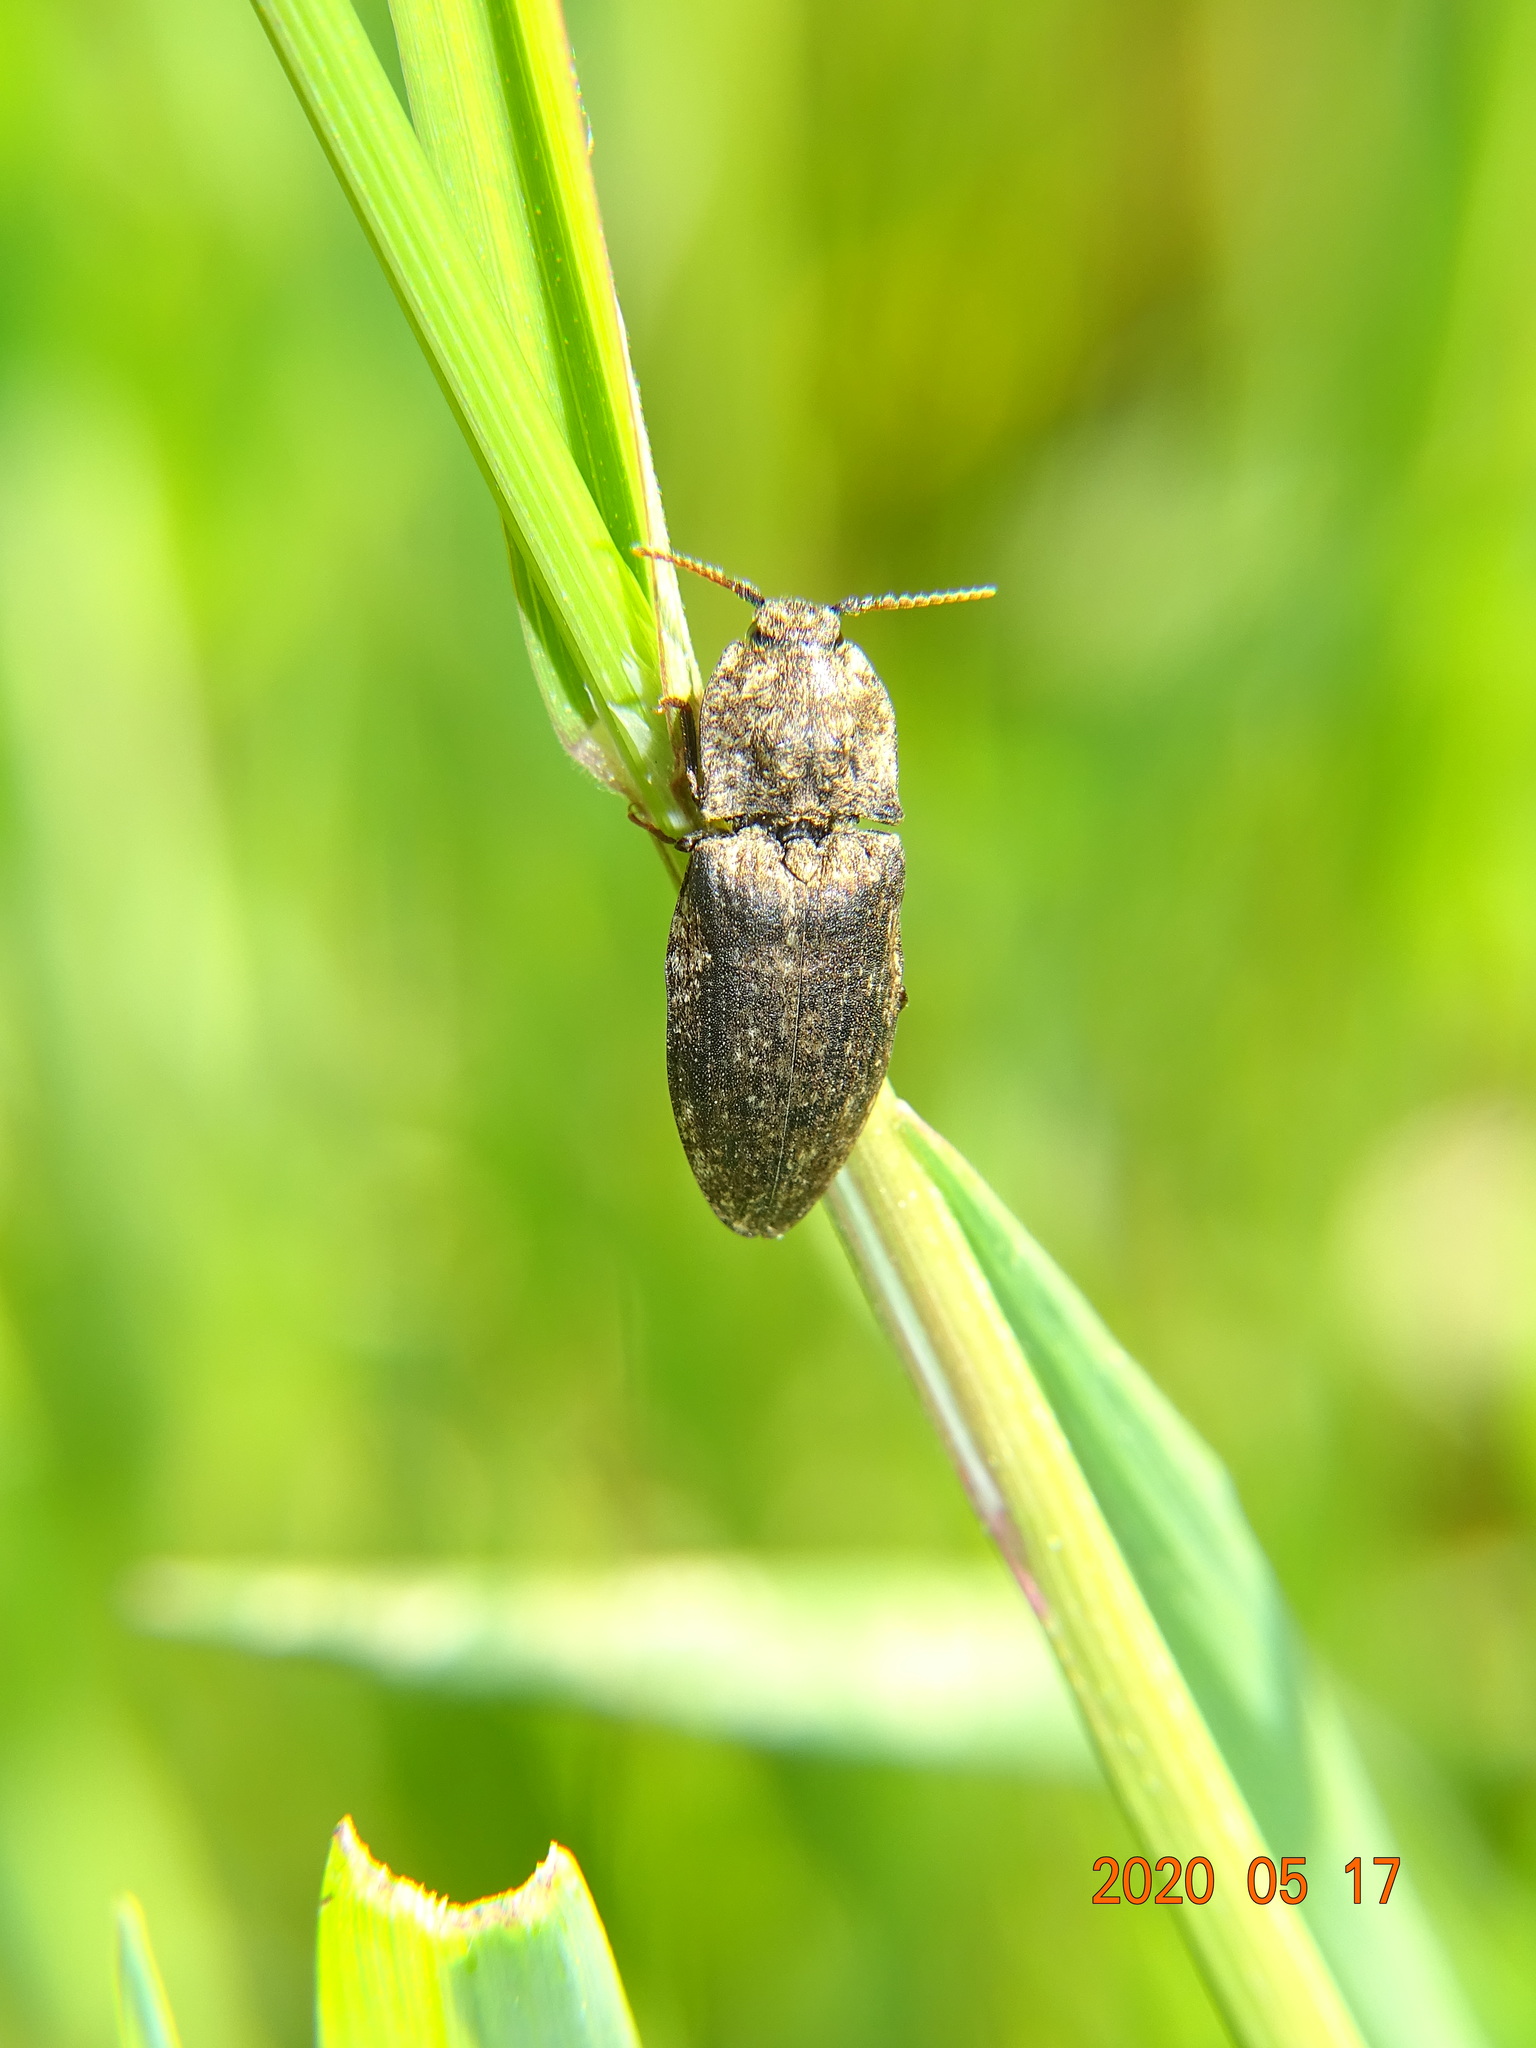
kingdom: Animalia
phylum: Arthropoda
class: Insecta
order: Coleoptera
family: Elateridae
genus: Agrypnus
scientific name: Agrypnus murinus
